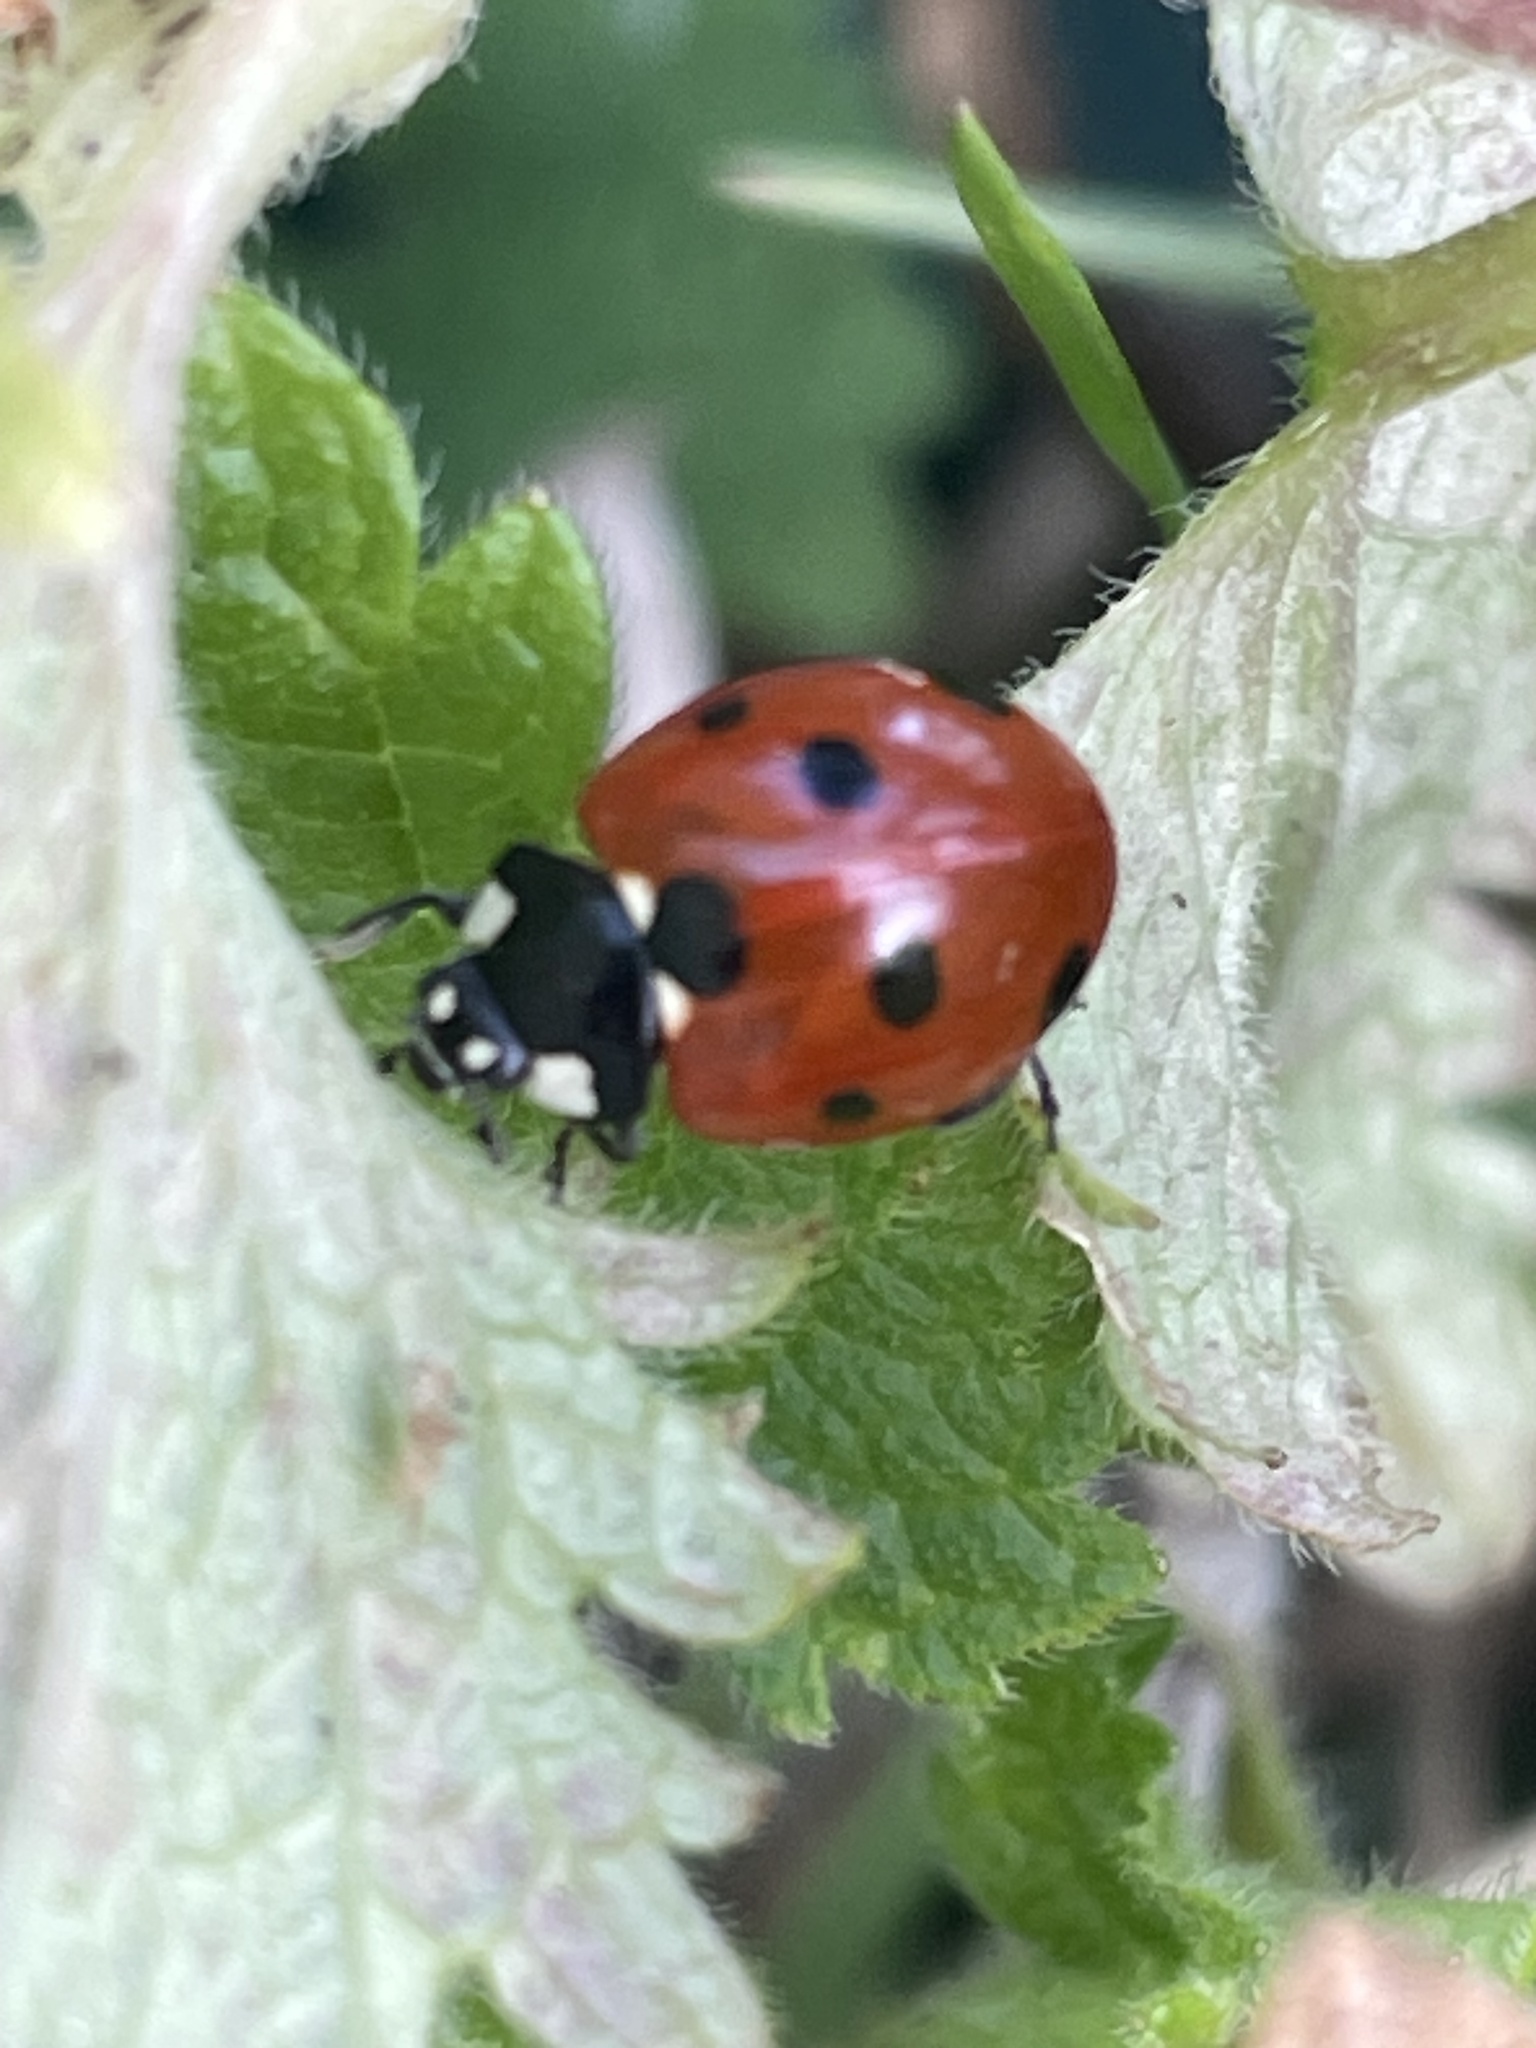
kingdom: Animalia
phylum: Arthropoda
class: Insecta
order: Coleoptera
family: Coccinellidae
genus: Coccinella
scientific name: Coccinella septempunctata
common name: Sevenspotted lady beetle
